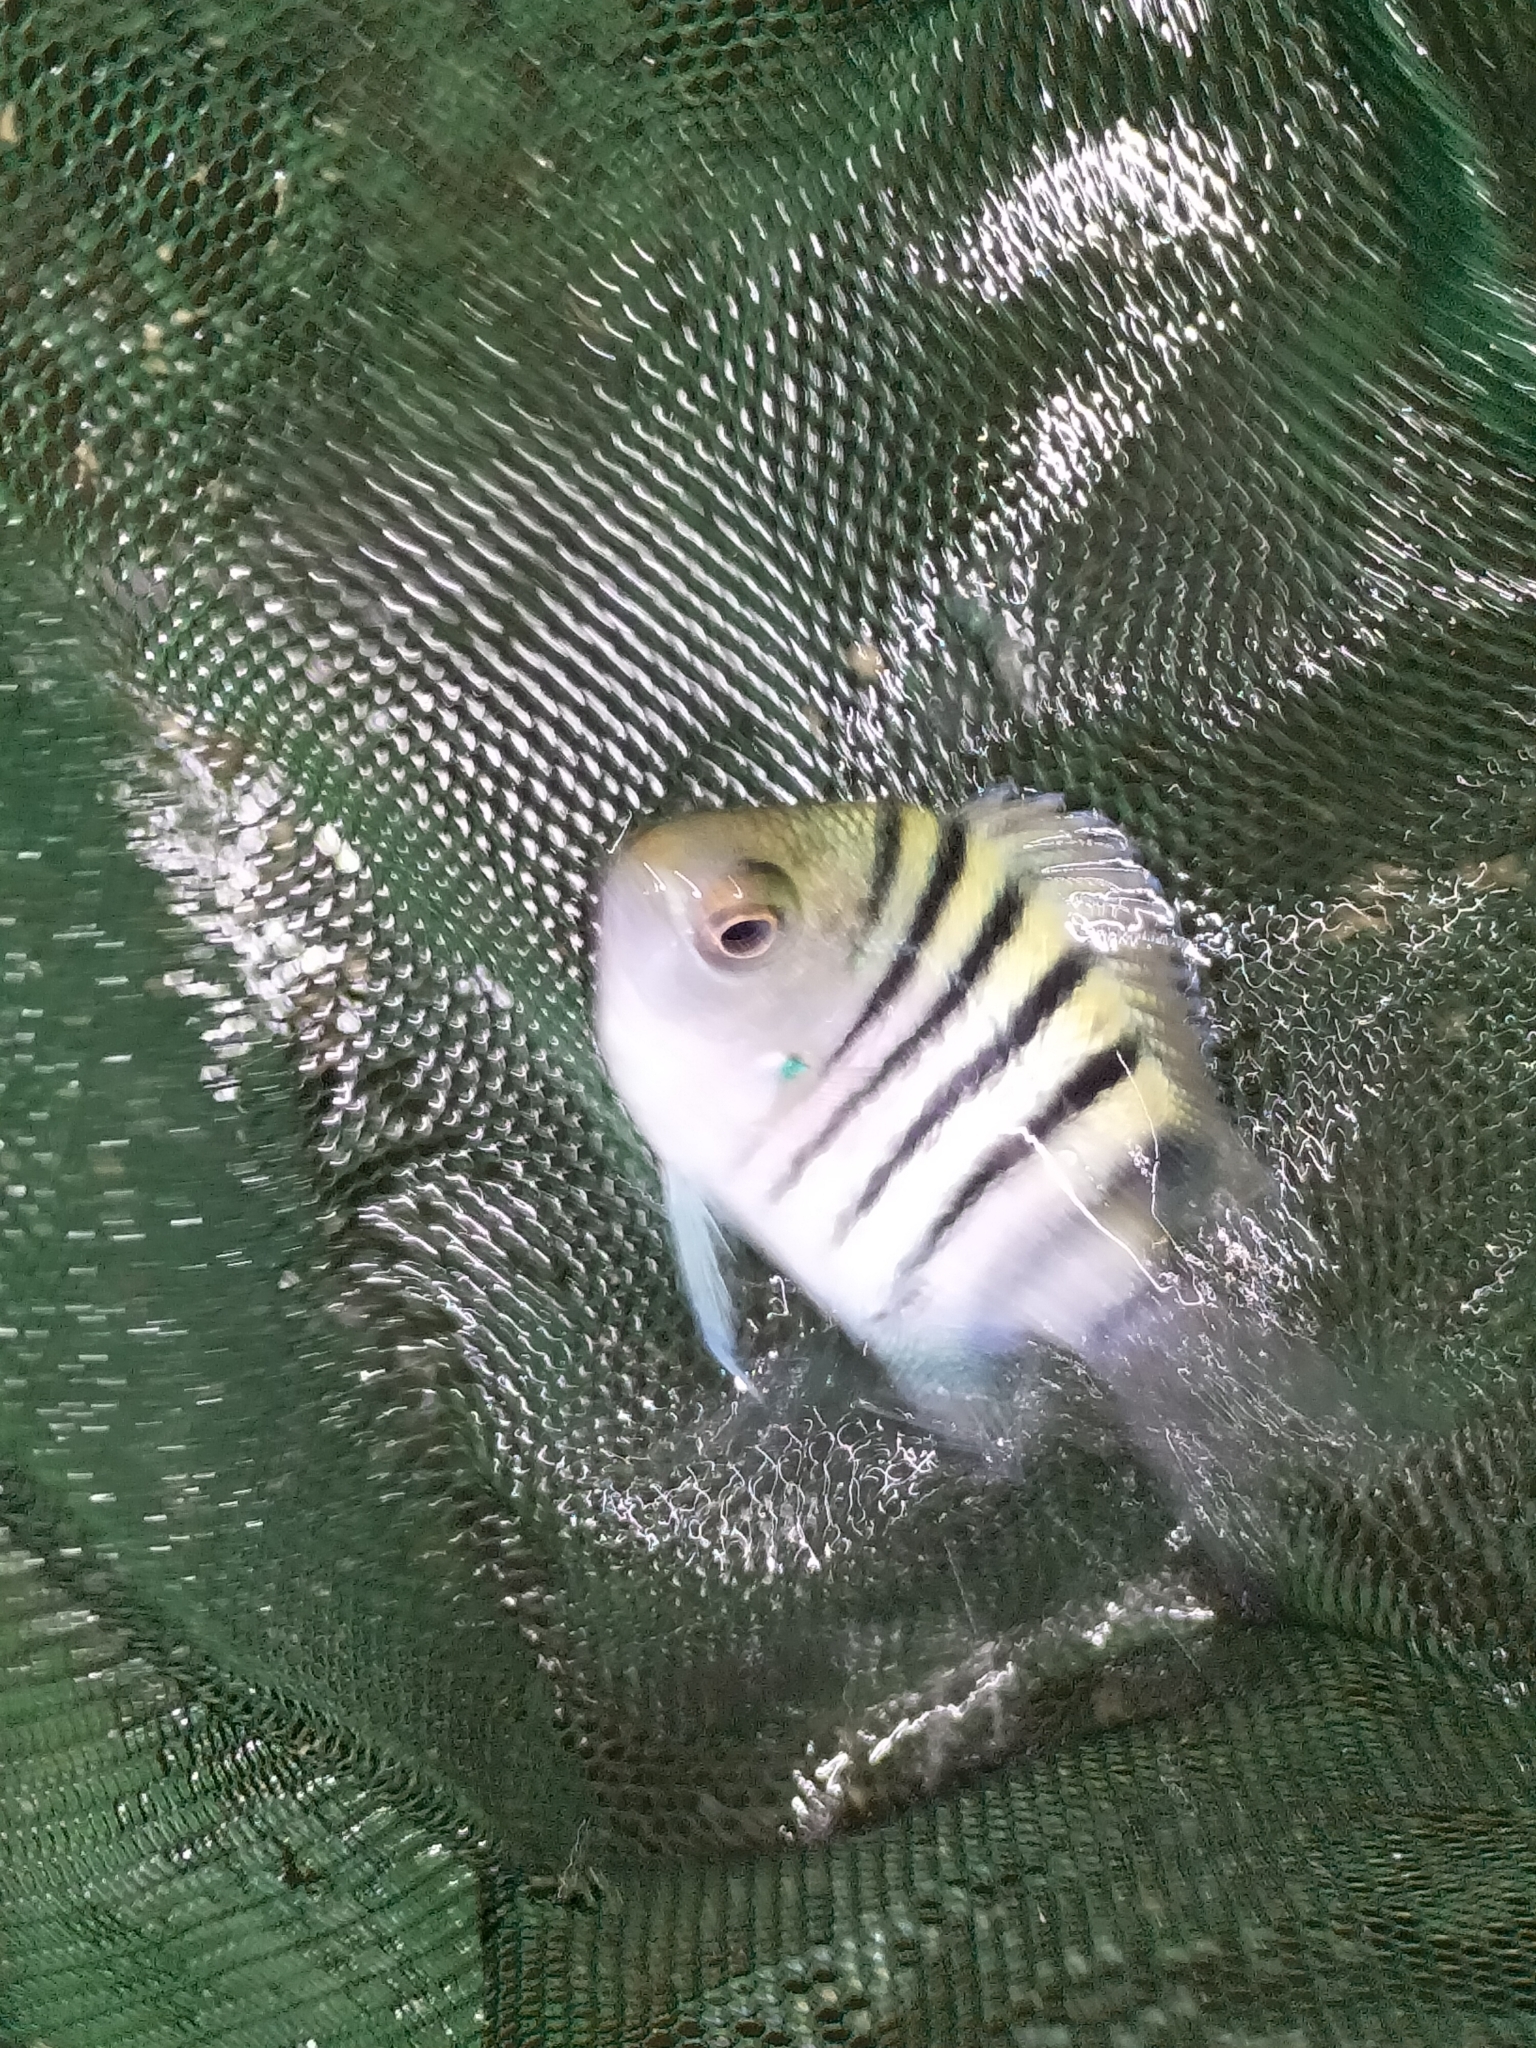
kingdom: Animalia
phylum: Chordata
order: Perciformes
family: Pomacentridae
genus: Abudefduf
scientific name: Abudefduf bengalensis
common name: Bengal sergeant
